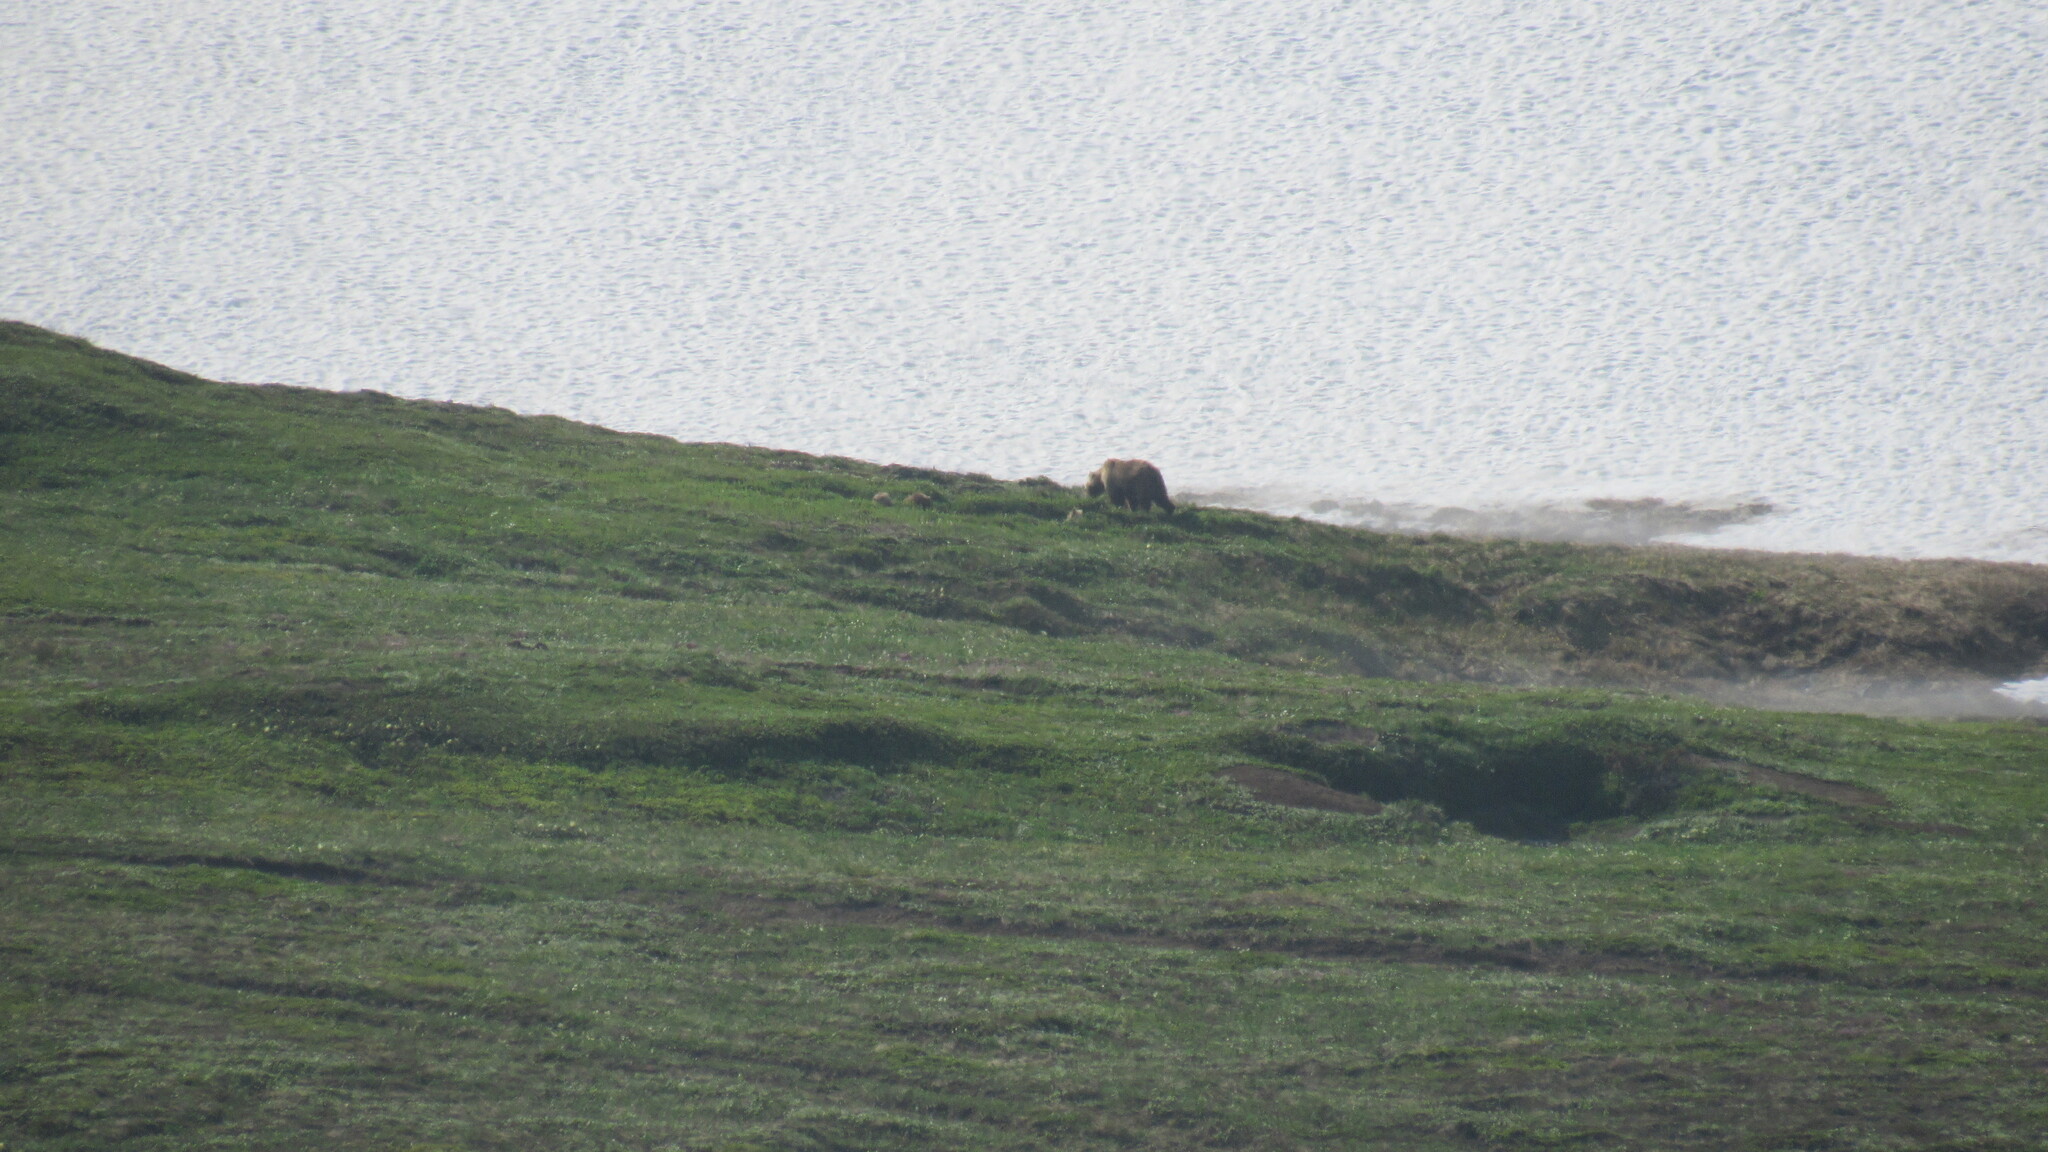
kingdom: Animalia
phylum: Chordata
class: Mammalia
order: Carnivora
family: Ursidae
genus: Ursus
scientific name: Ursus arctos
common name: Brown bear
